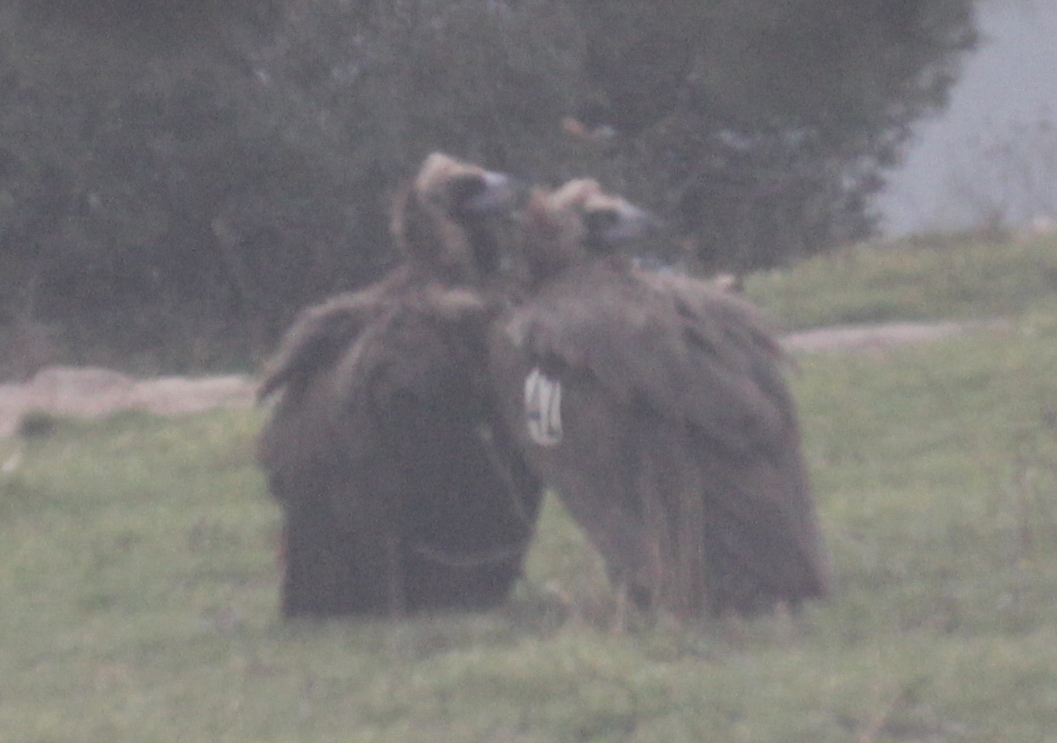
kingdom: Animalia
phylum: Chordata
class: Aves
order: Accipitriformes
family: Accipitridae
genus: Aegypius
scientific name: Aegypius monachus
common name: Cinereous vulture
